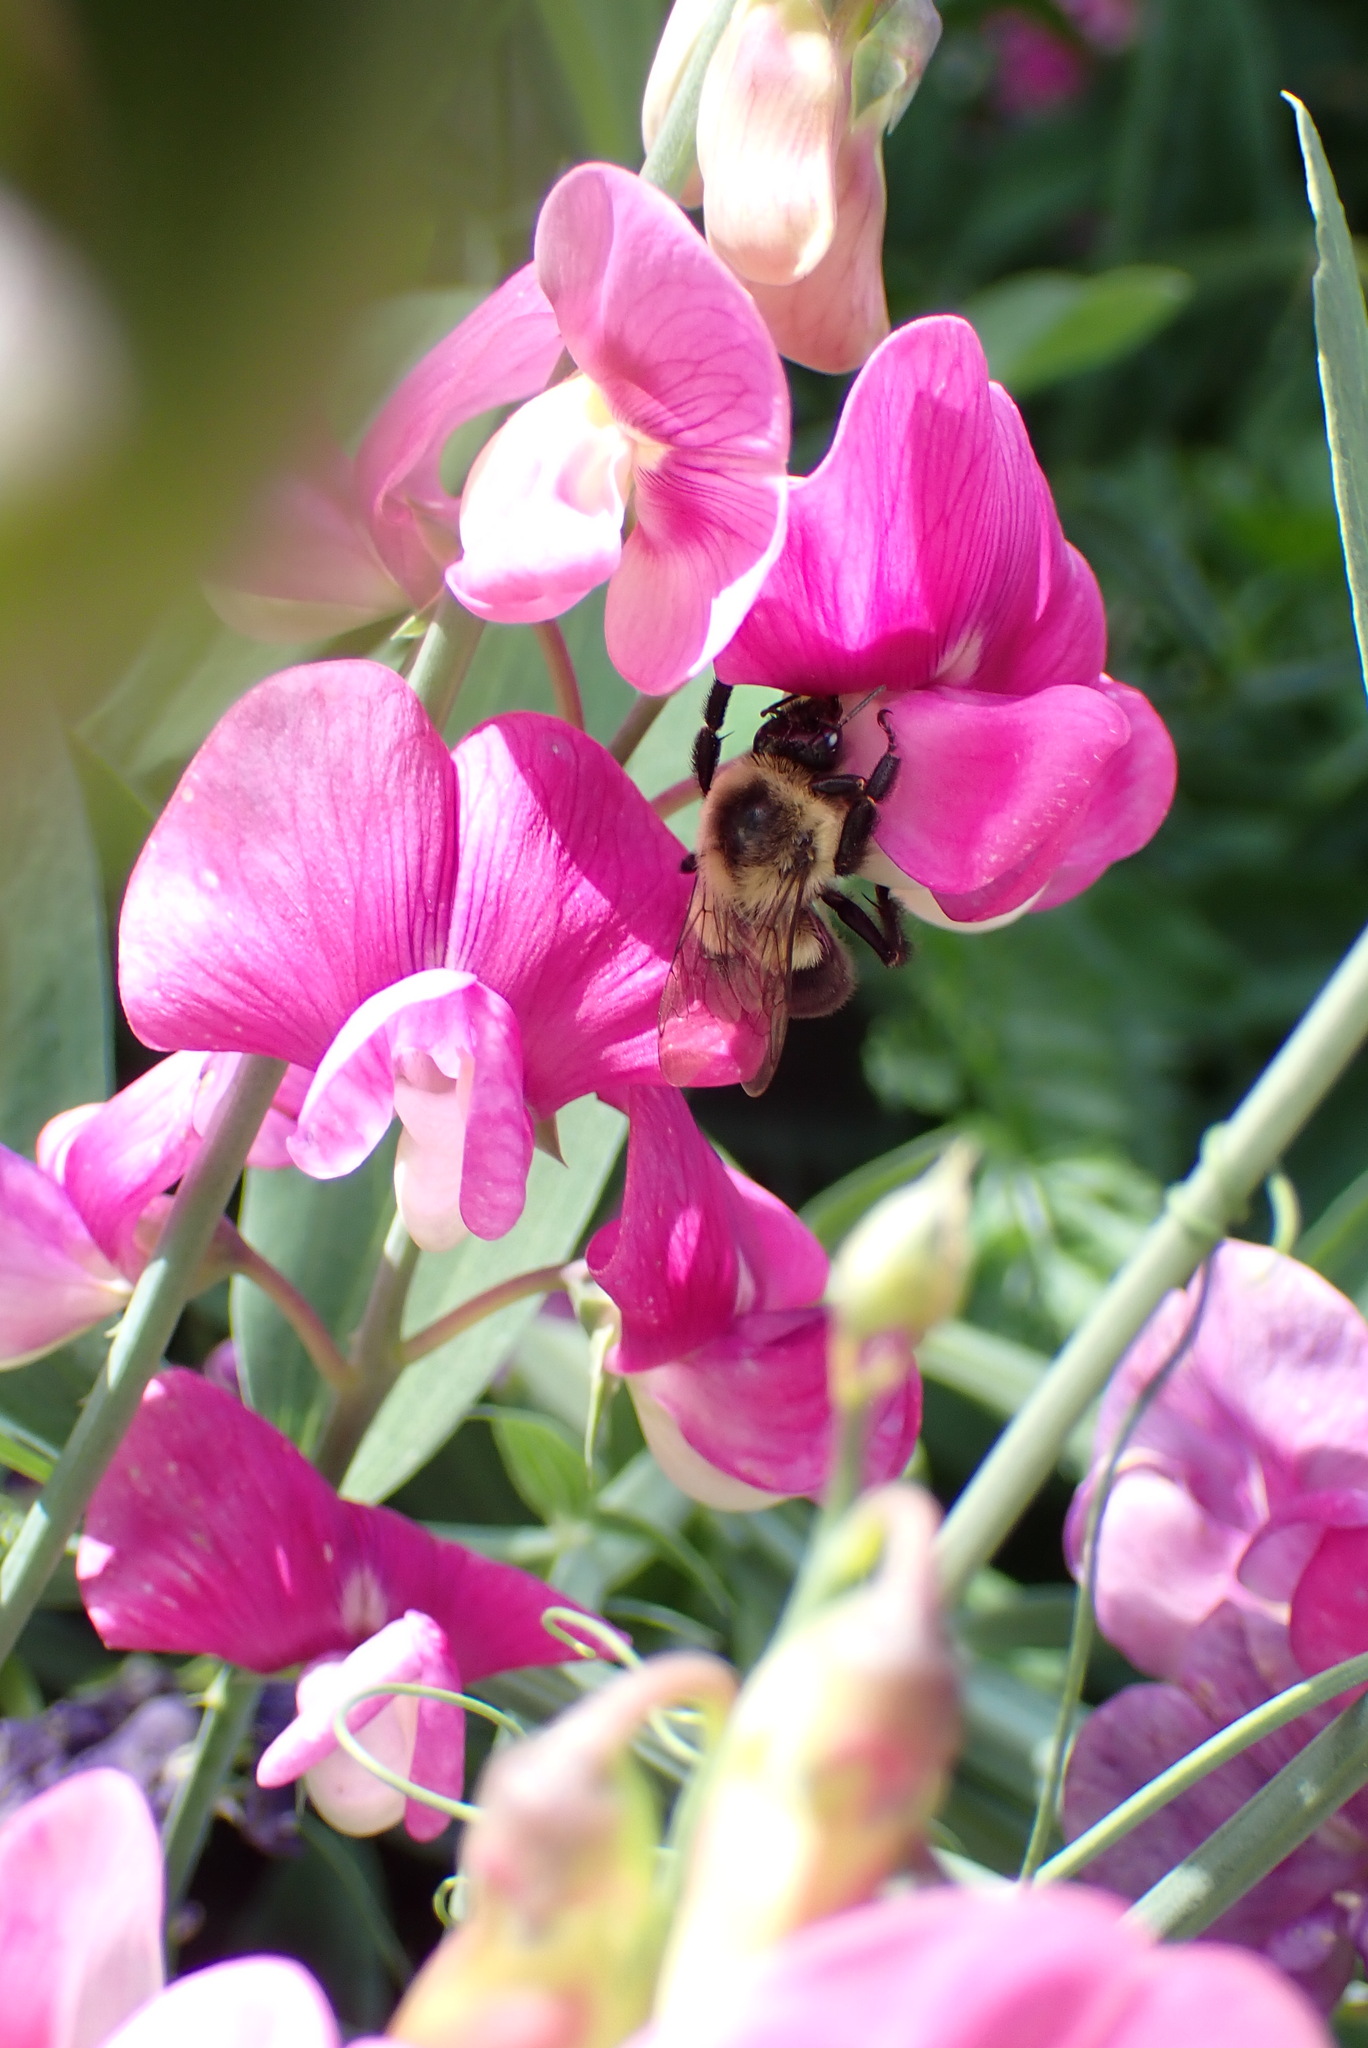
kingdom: Animalia
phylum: Arthropoda
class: Insecta
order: Hymenoptera
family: Apidae
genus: Bombus
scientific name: Bombus impatiens
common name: Common eastern bumble bee
